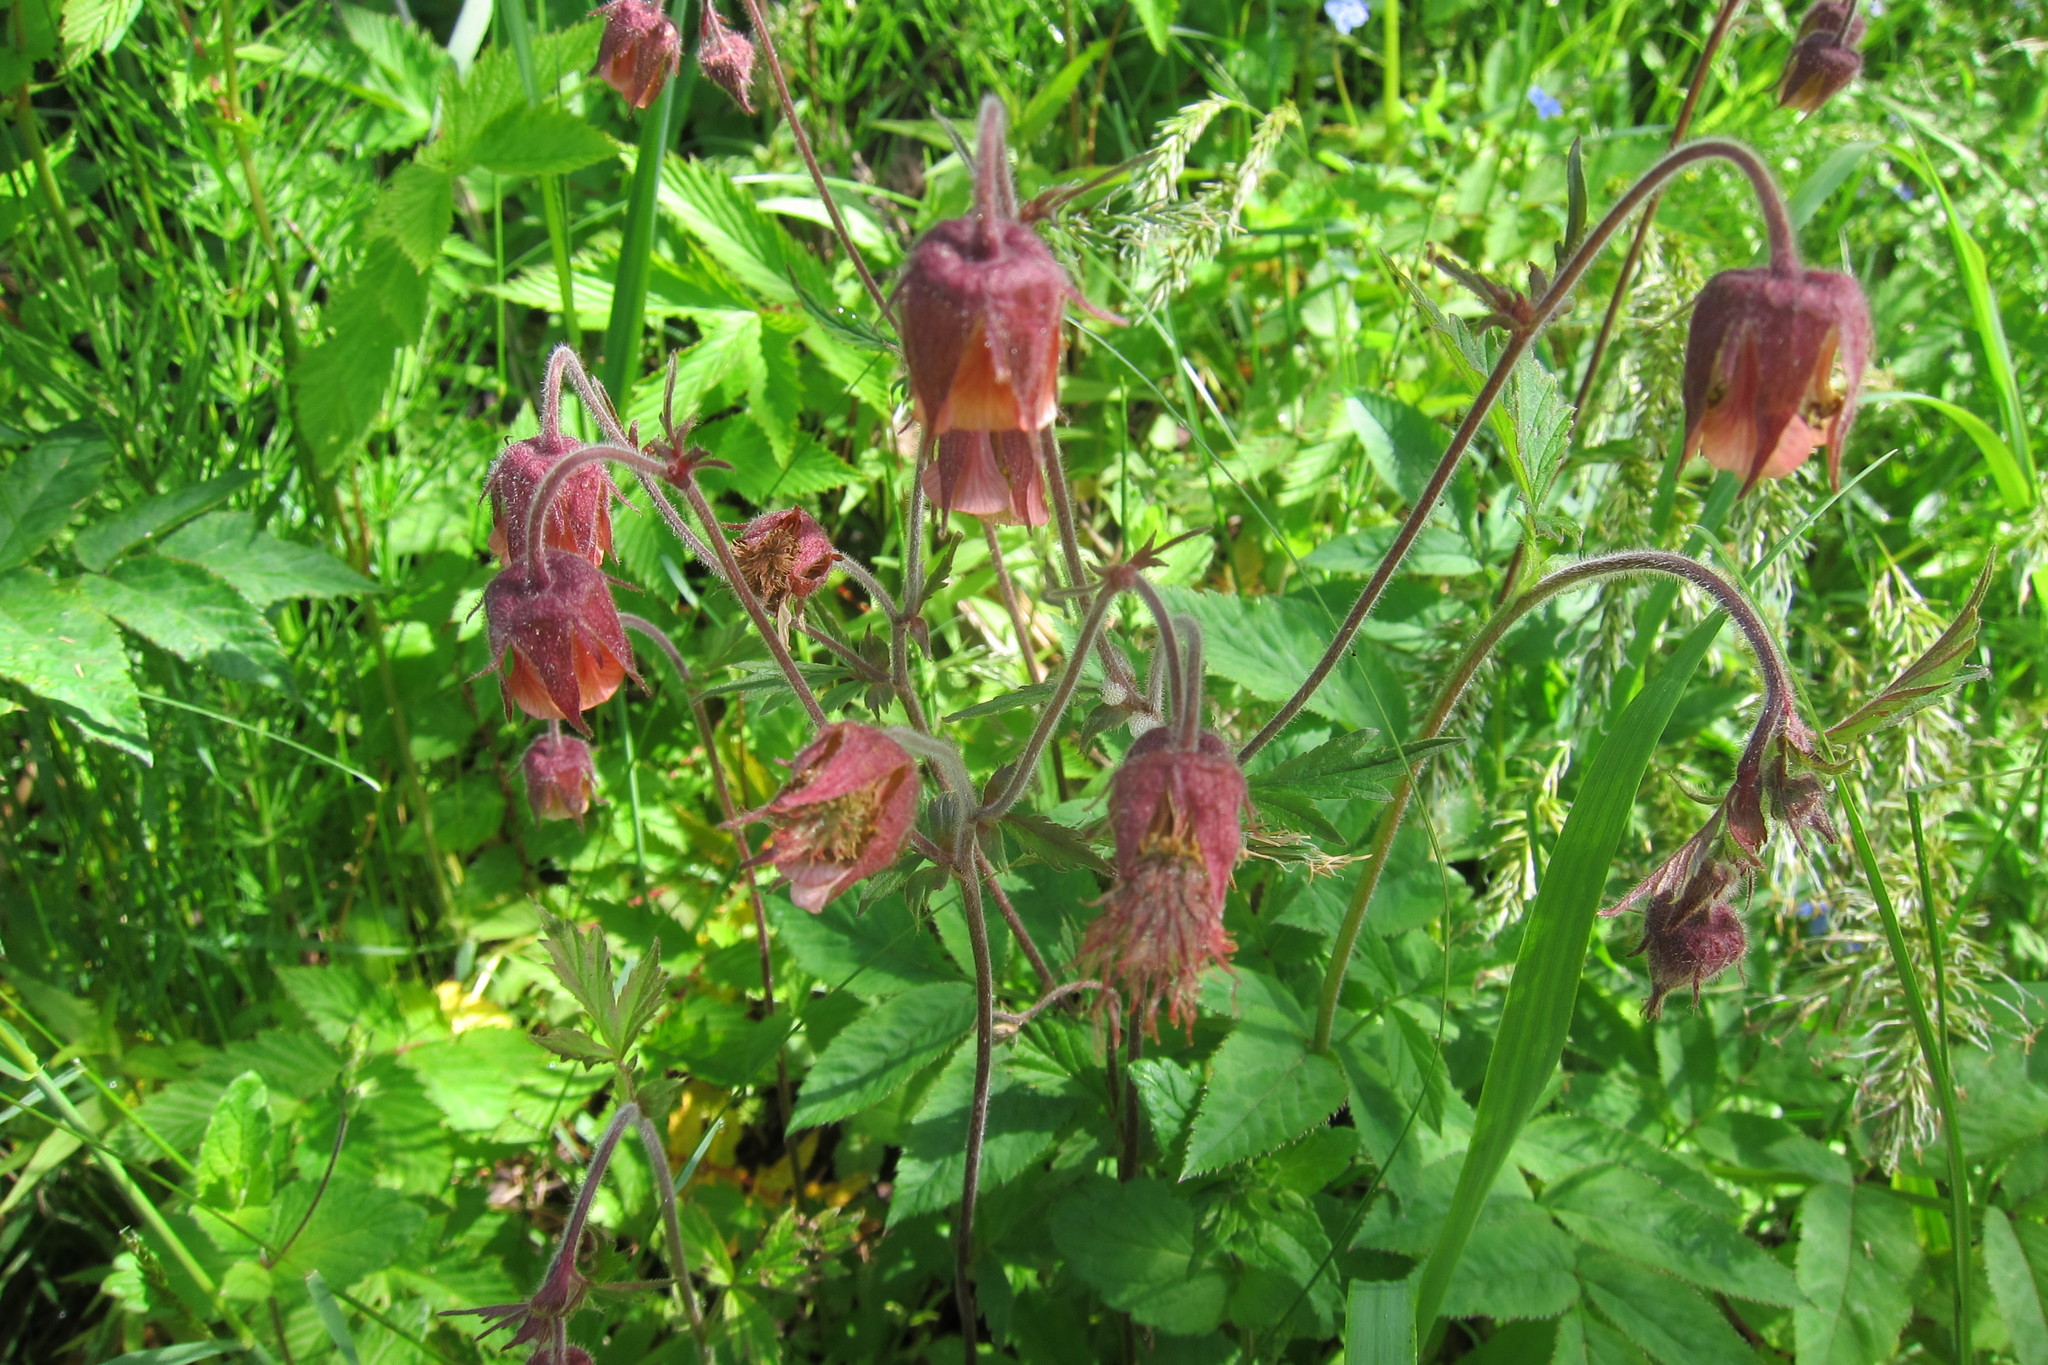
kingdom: Plantae
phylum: Tracheophyta
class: Magnoliopsida
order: Rosales
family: Rosaceae
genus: Geum
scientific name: Geum rivale
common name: Water avens
